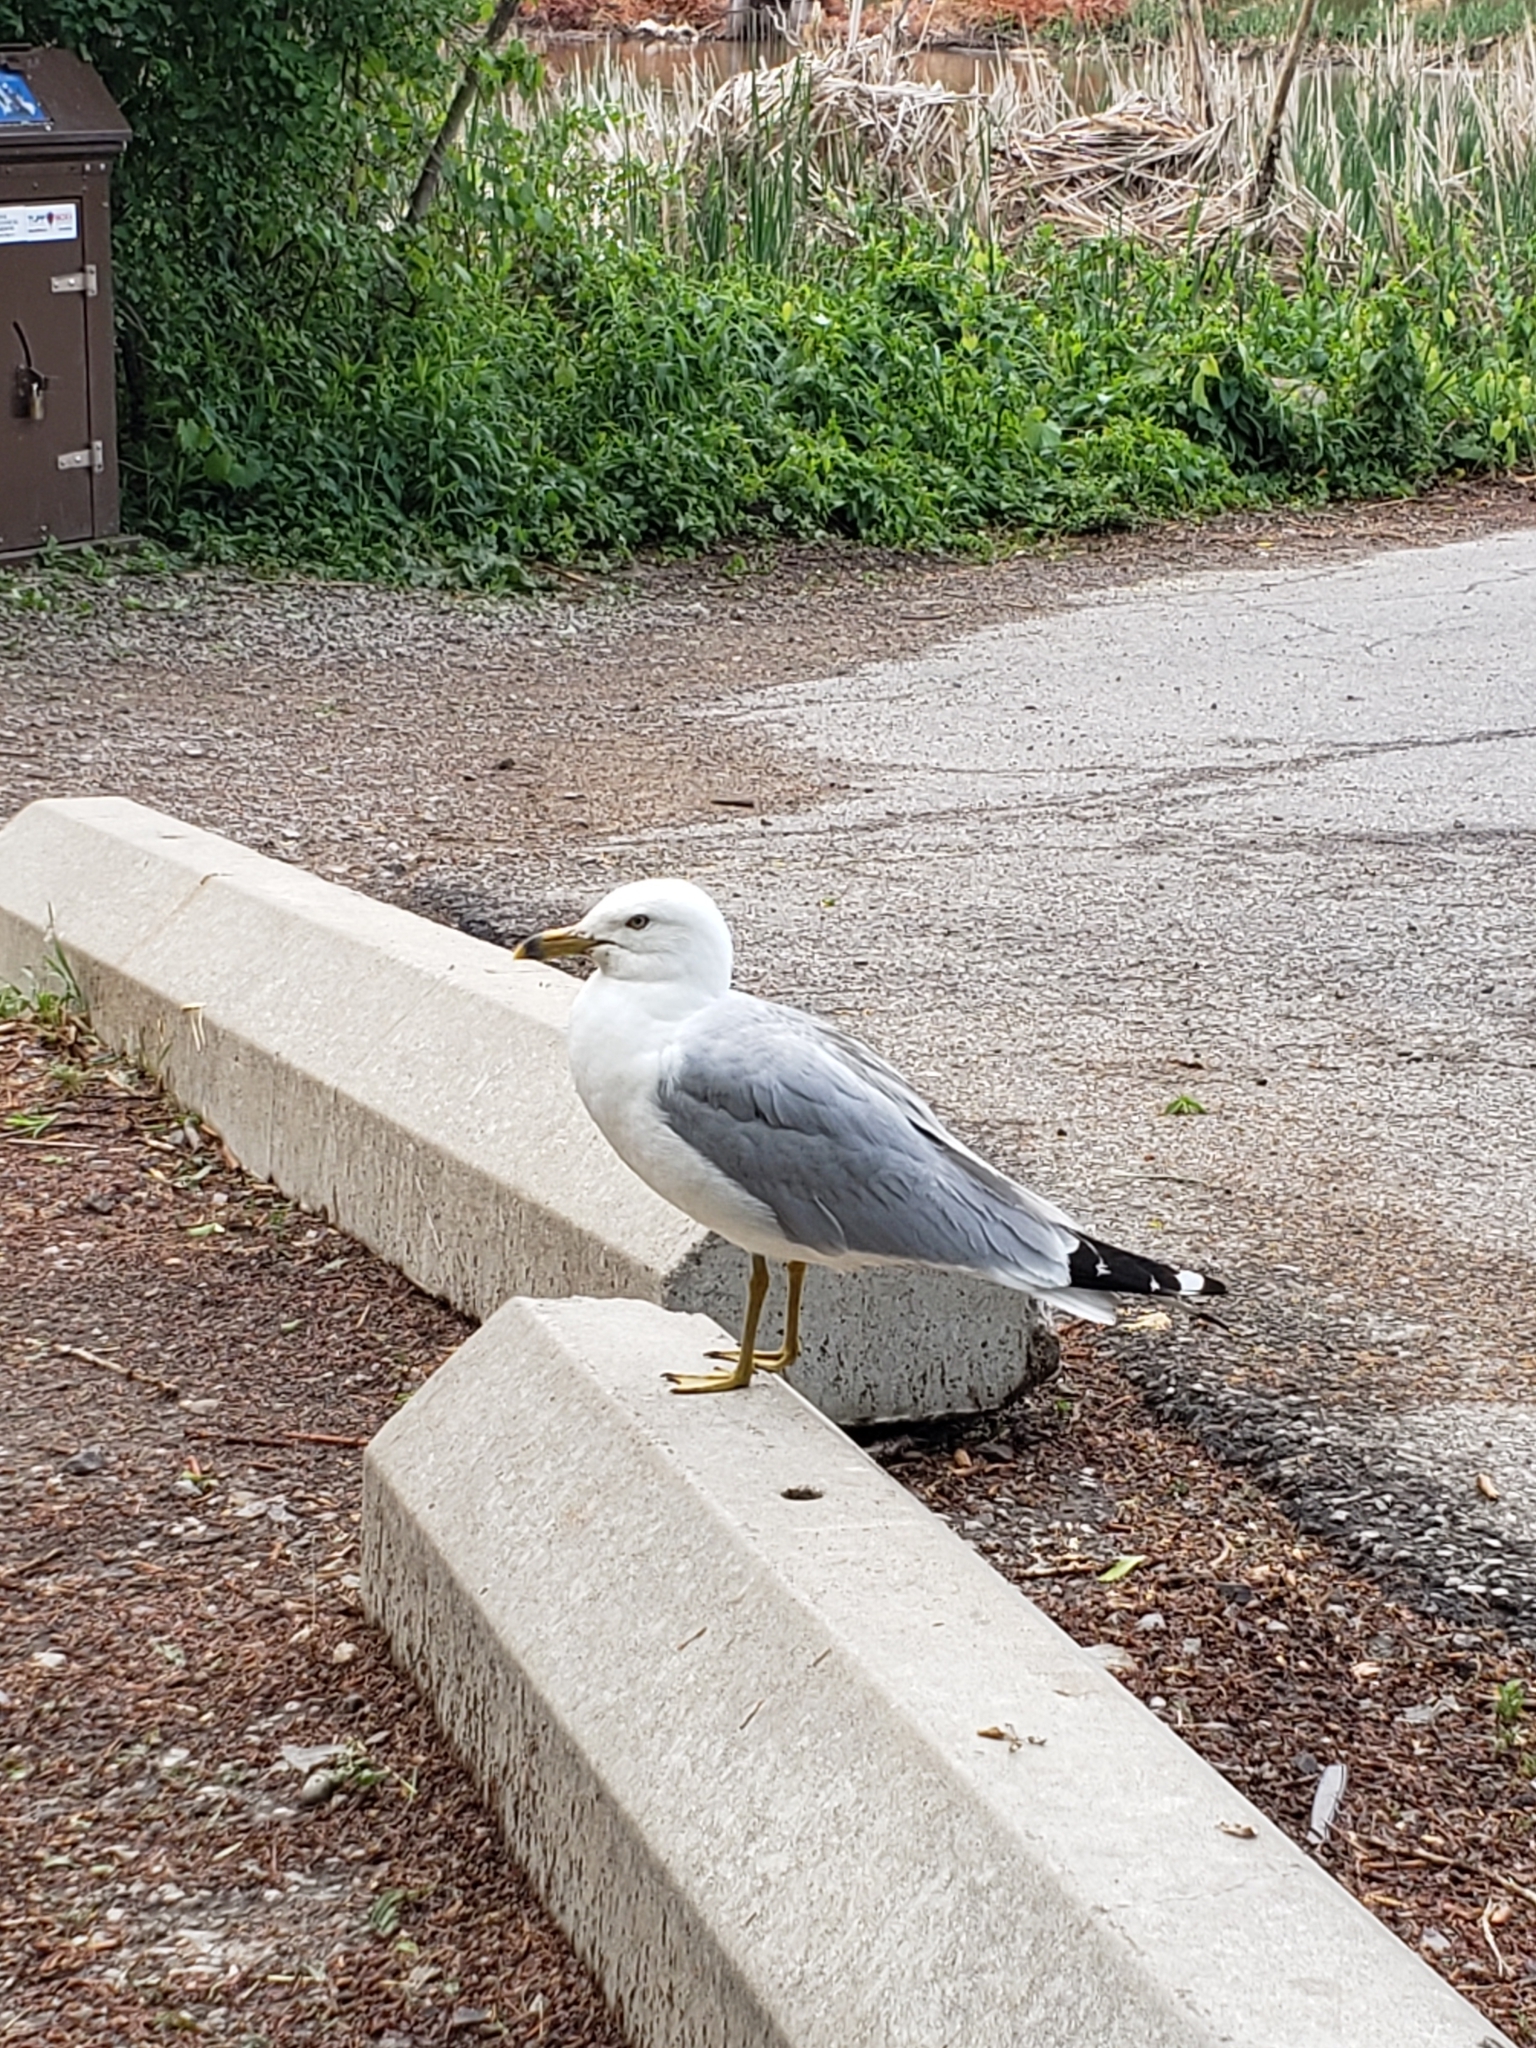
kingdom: Animalia
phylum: Chordata
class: Aves
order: Charadriiformes
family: Laridae
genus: Larus
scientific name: Larus delawarensis
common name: Ring-billed gull
